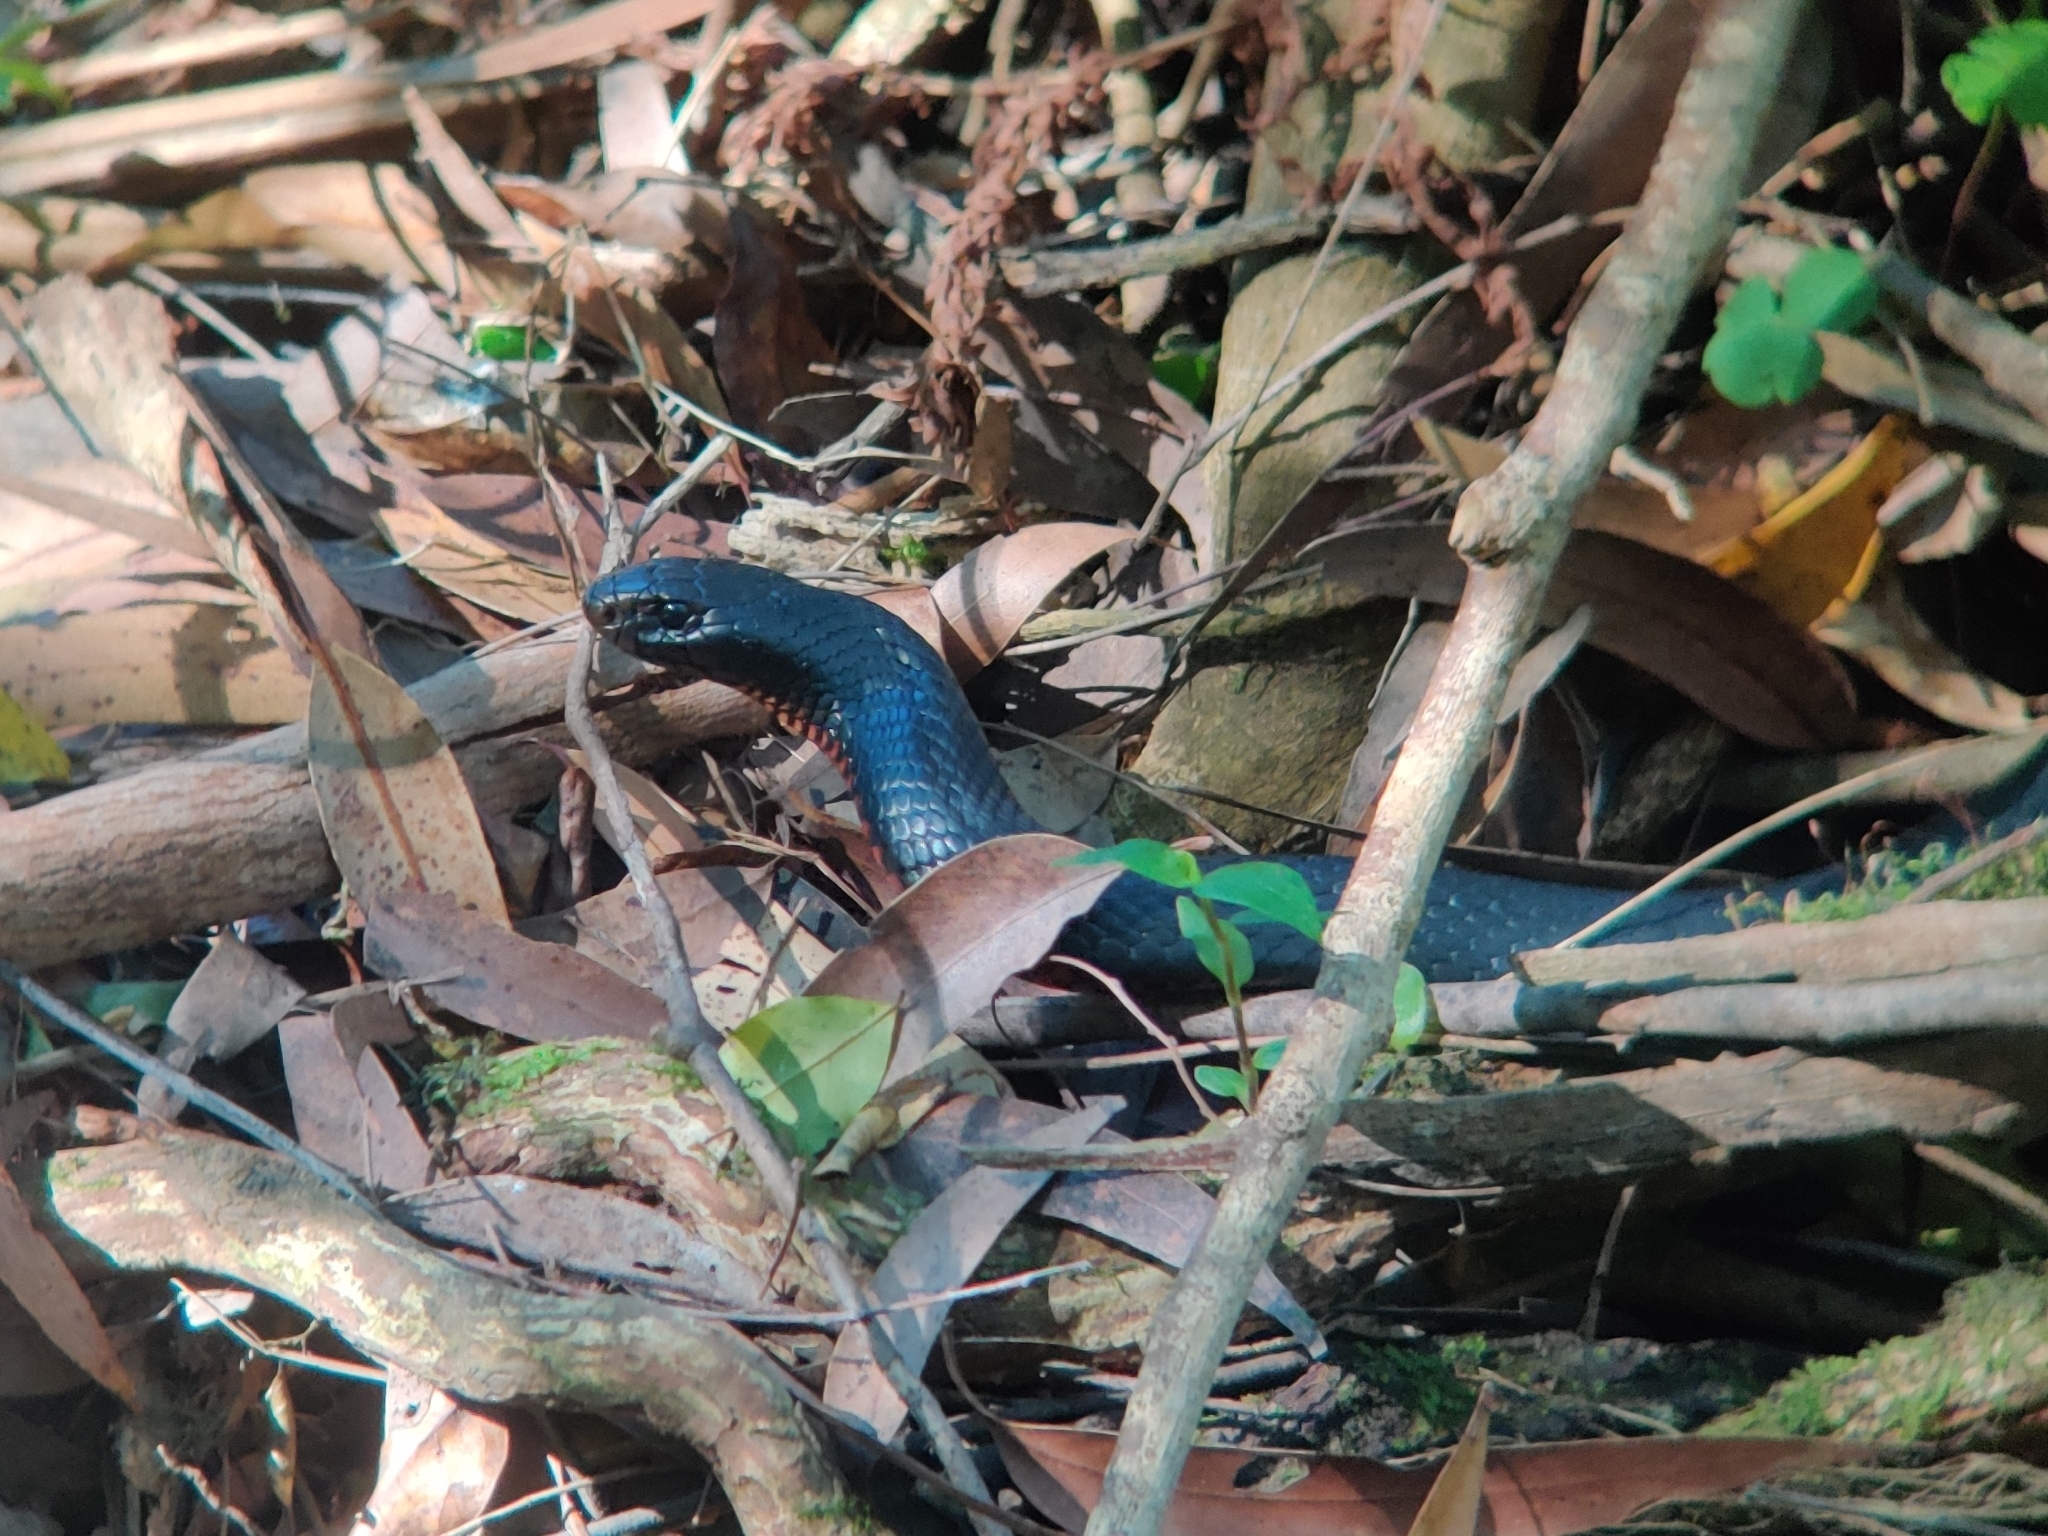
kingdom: Animalia
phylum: Chordata
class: Squamata
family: Elapidae
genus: Pseudechis
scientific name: Pseudechis porphyriacus
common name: Australian black snake
